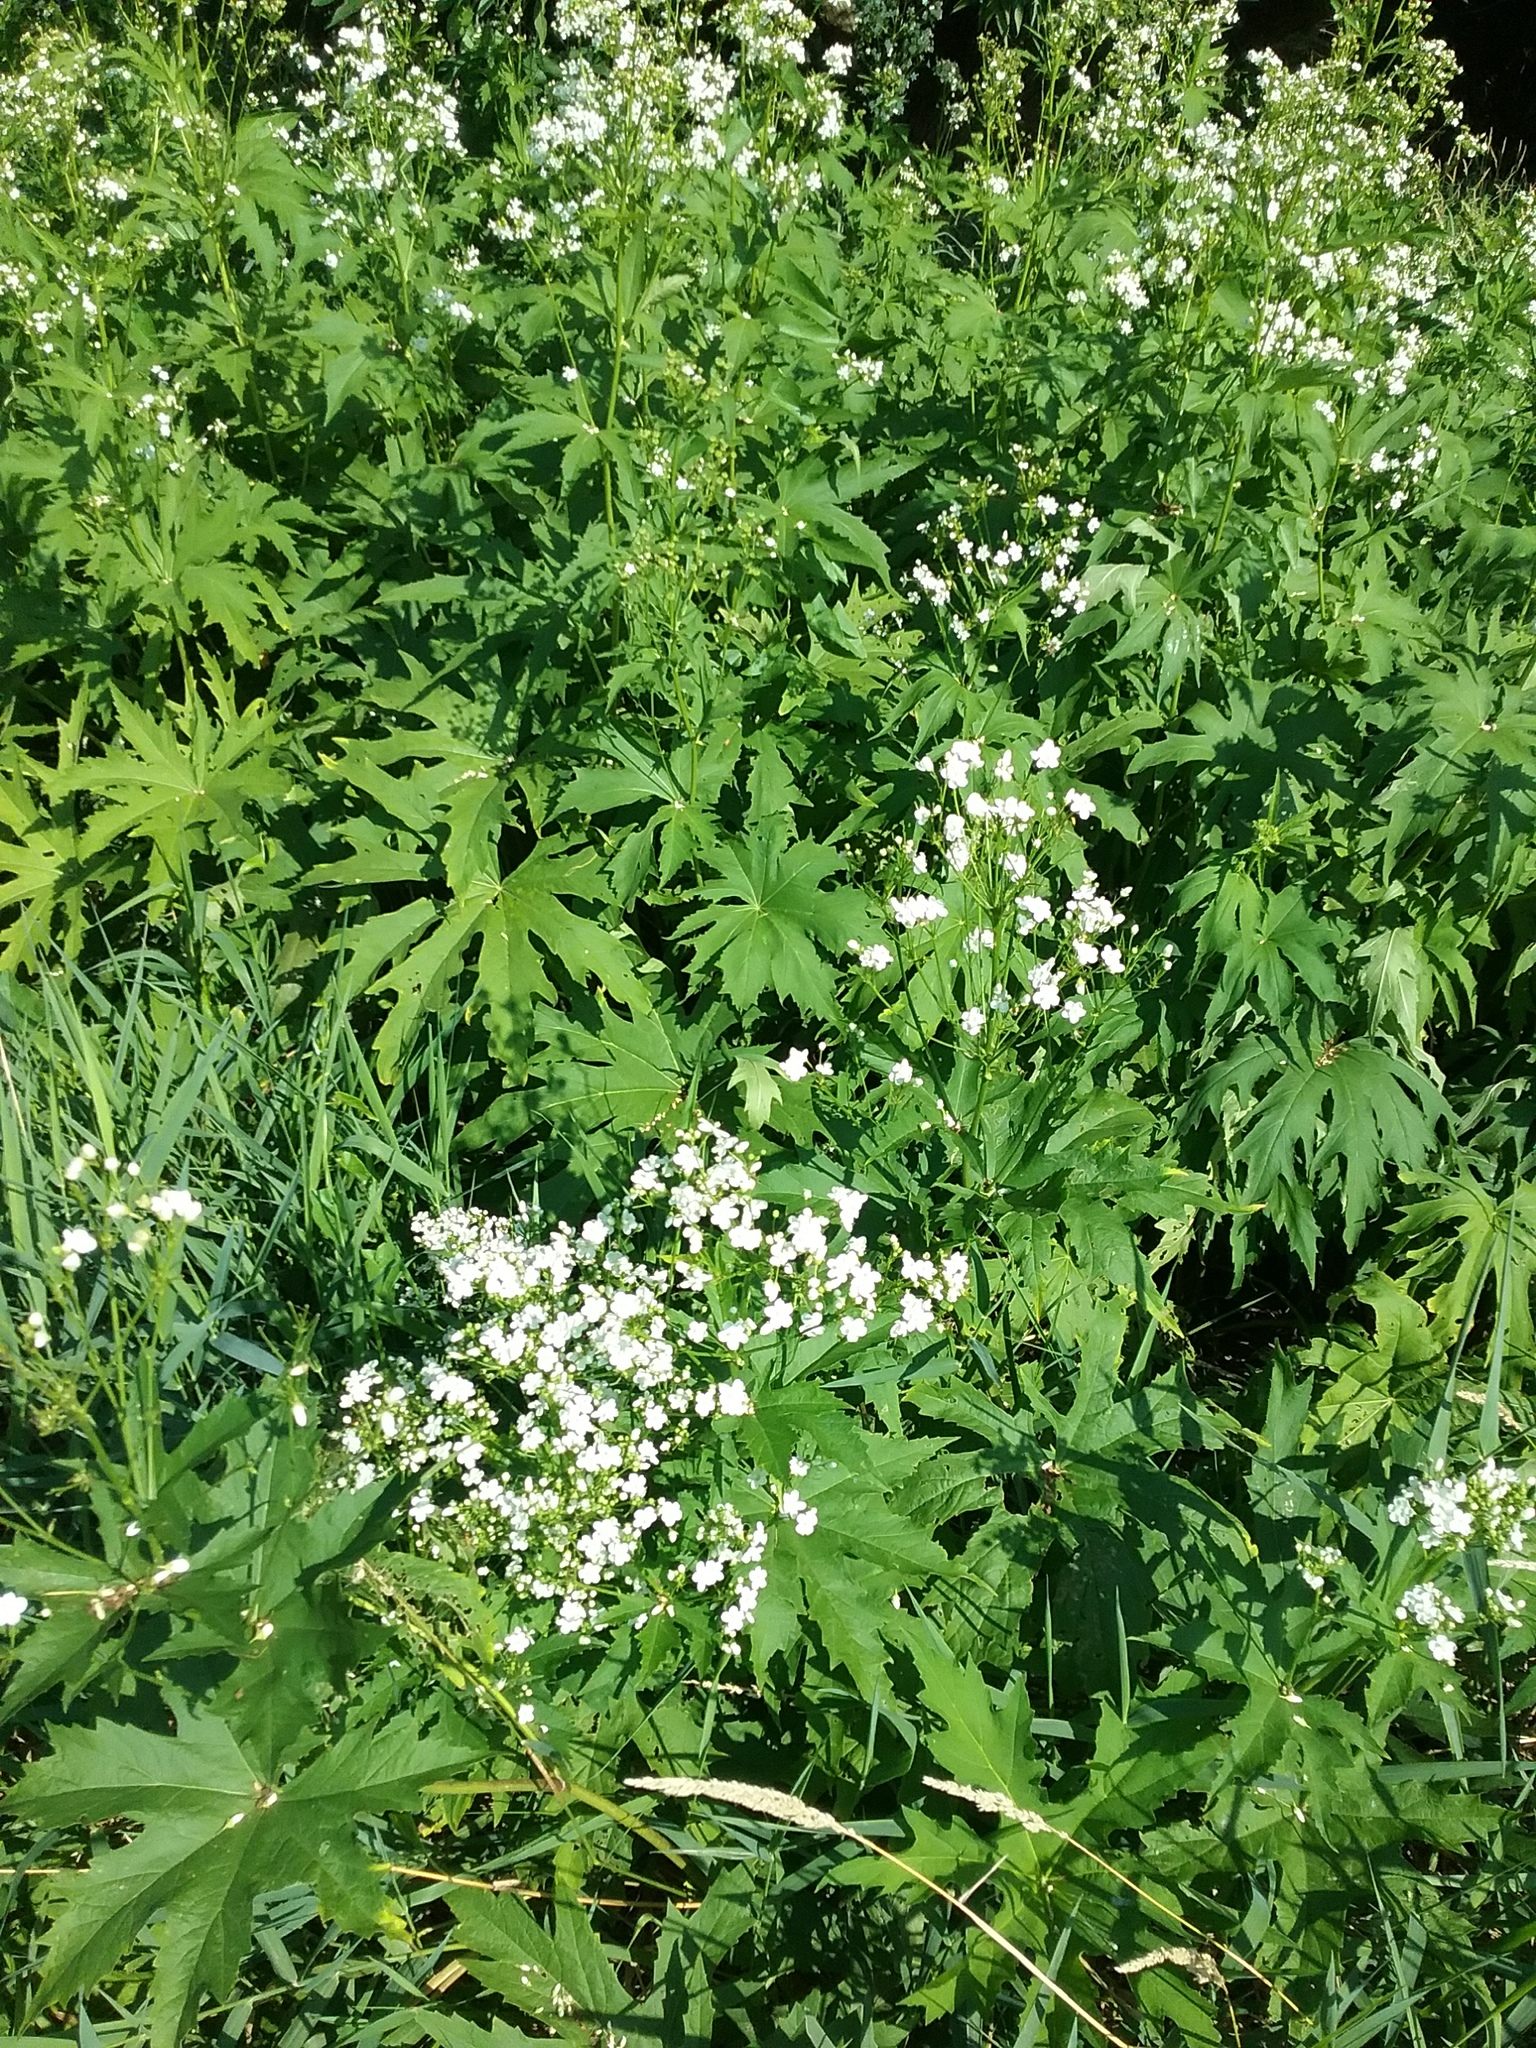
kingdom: Plantae
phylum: Tracheophyta
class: Magnoliopsida
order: Malvales
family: Malvaceae
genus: Napaea
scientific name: Napaea dioica
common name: Glade-mallow
